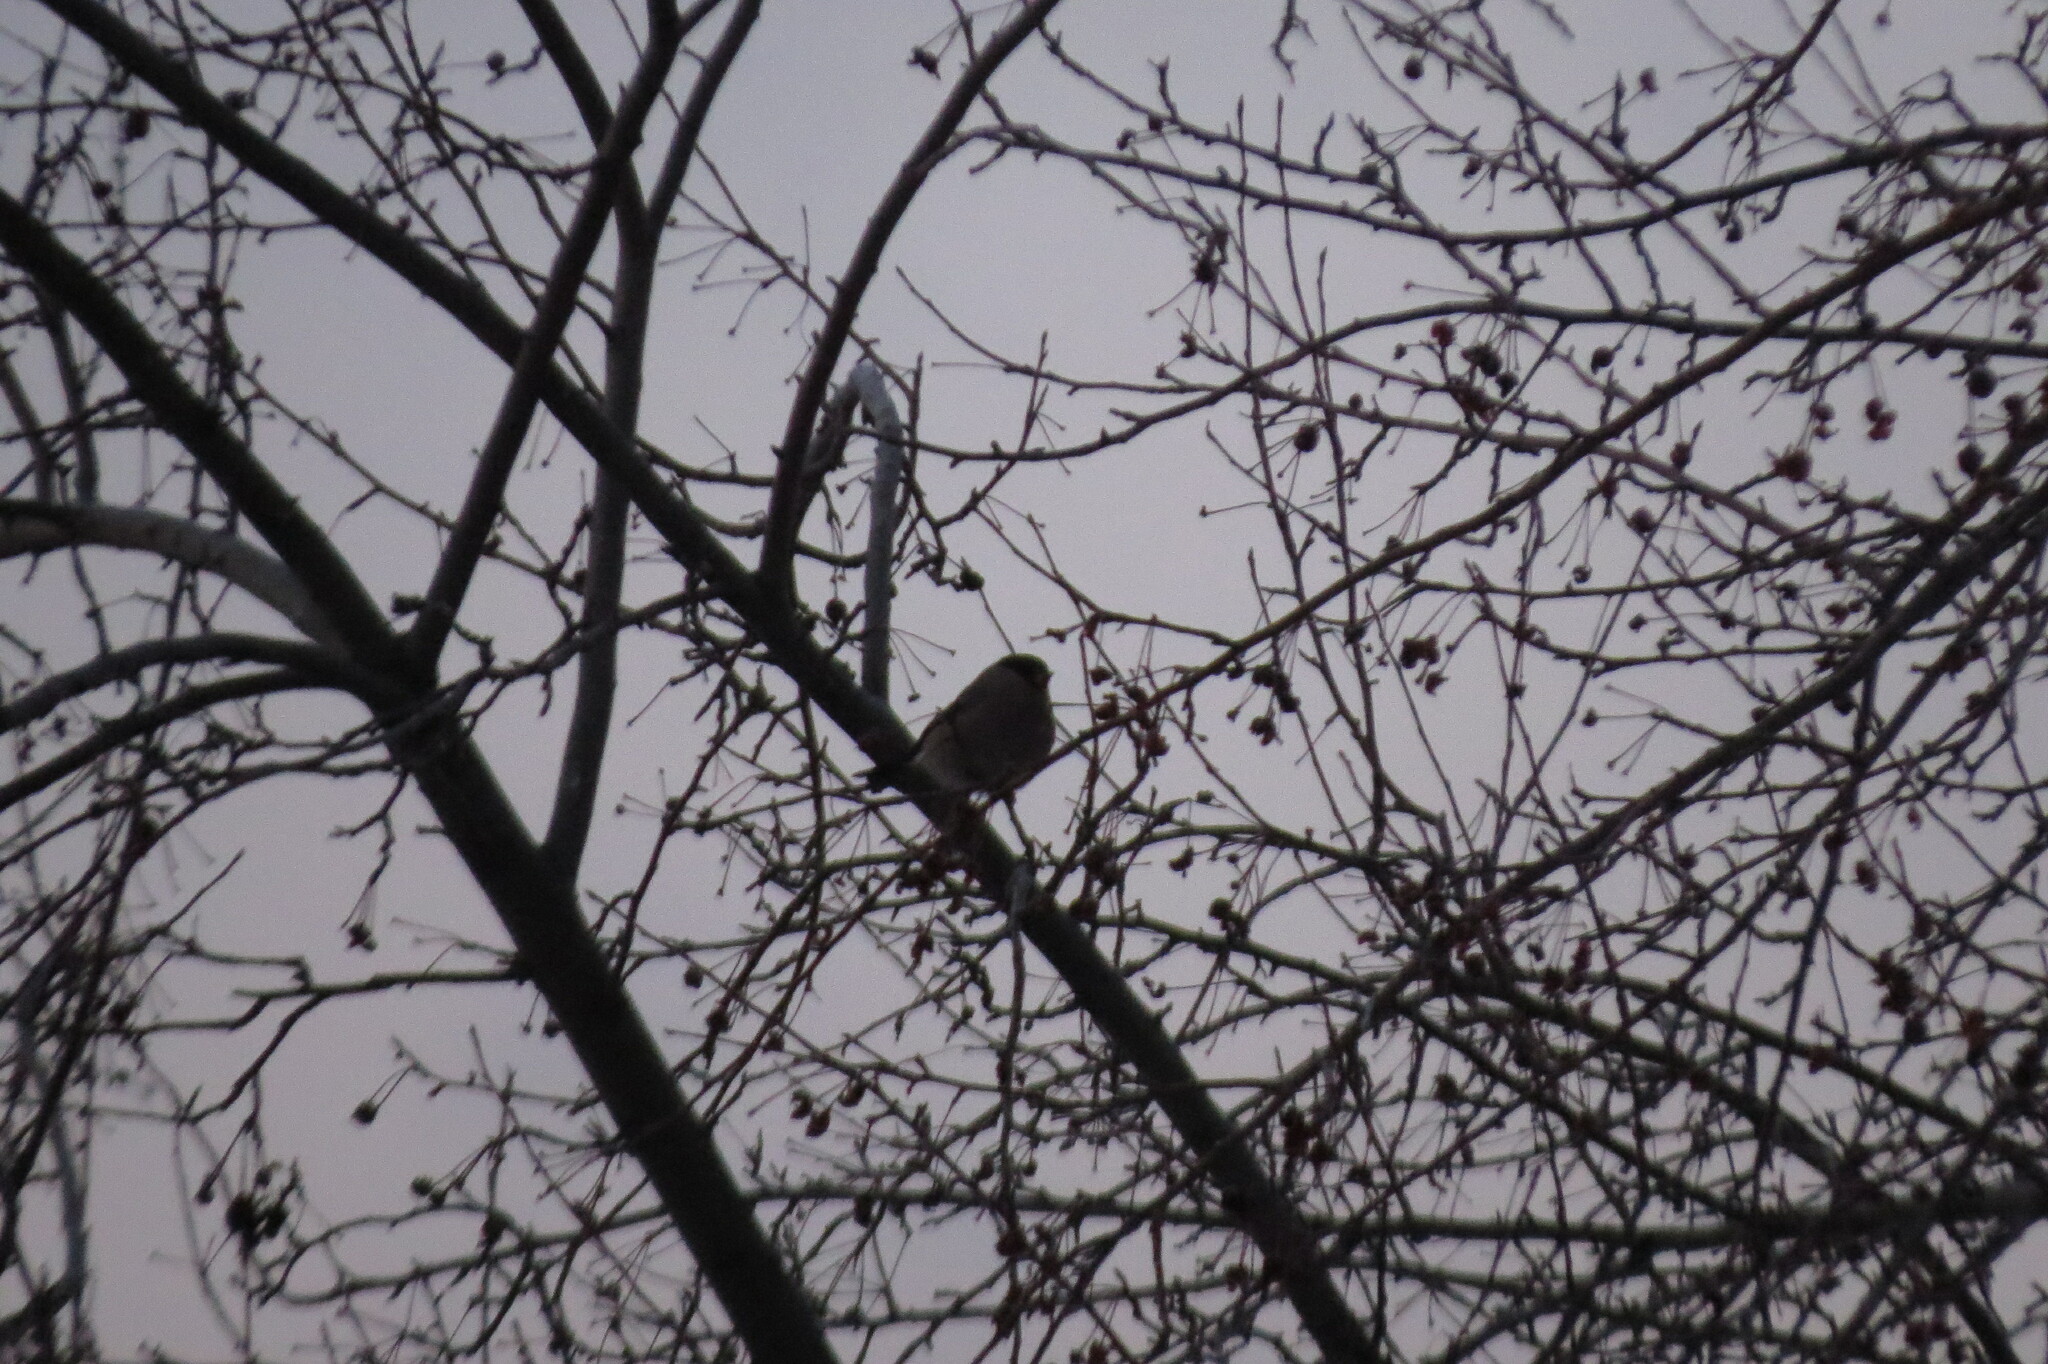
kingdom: Animalia
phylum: Chordata
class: Aves
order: Passeriformes
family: Fringillidae
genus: Pyrrhula
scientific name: Pyrrhula pyrrhula
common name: Eurasian bullfinch
